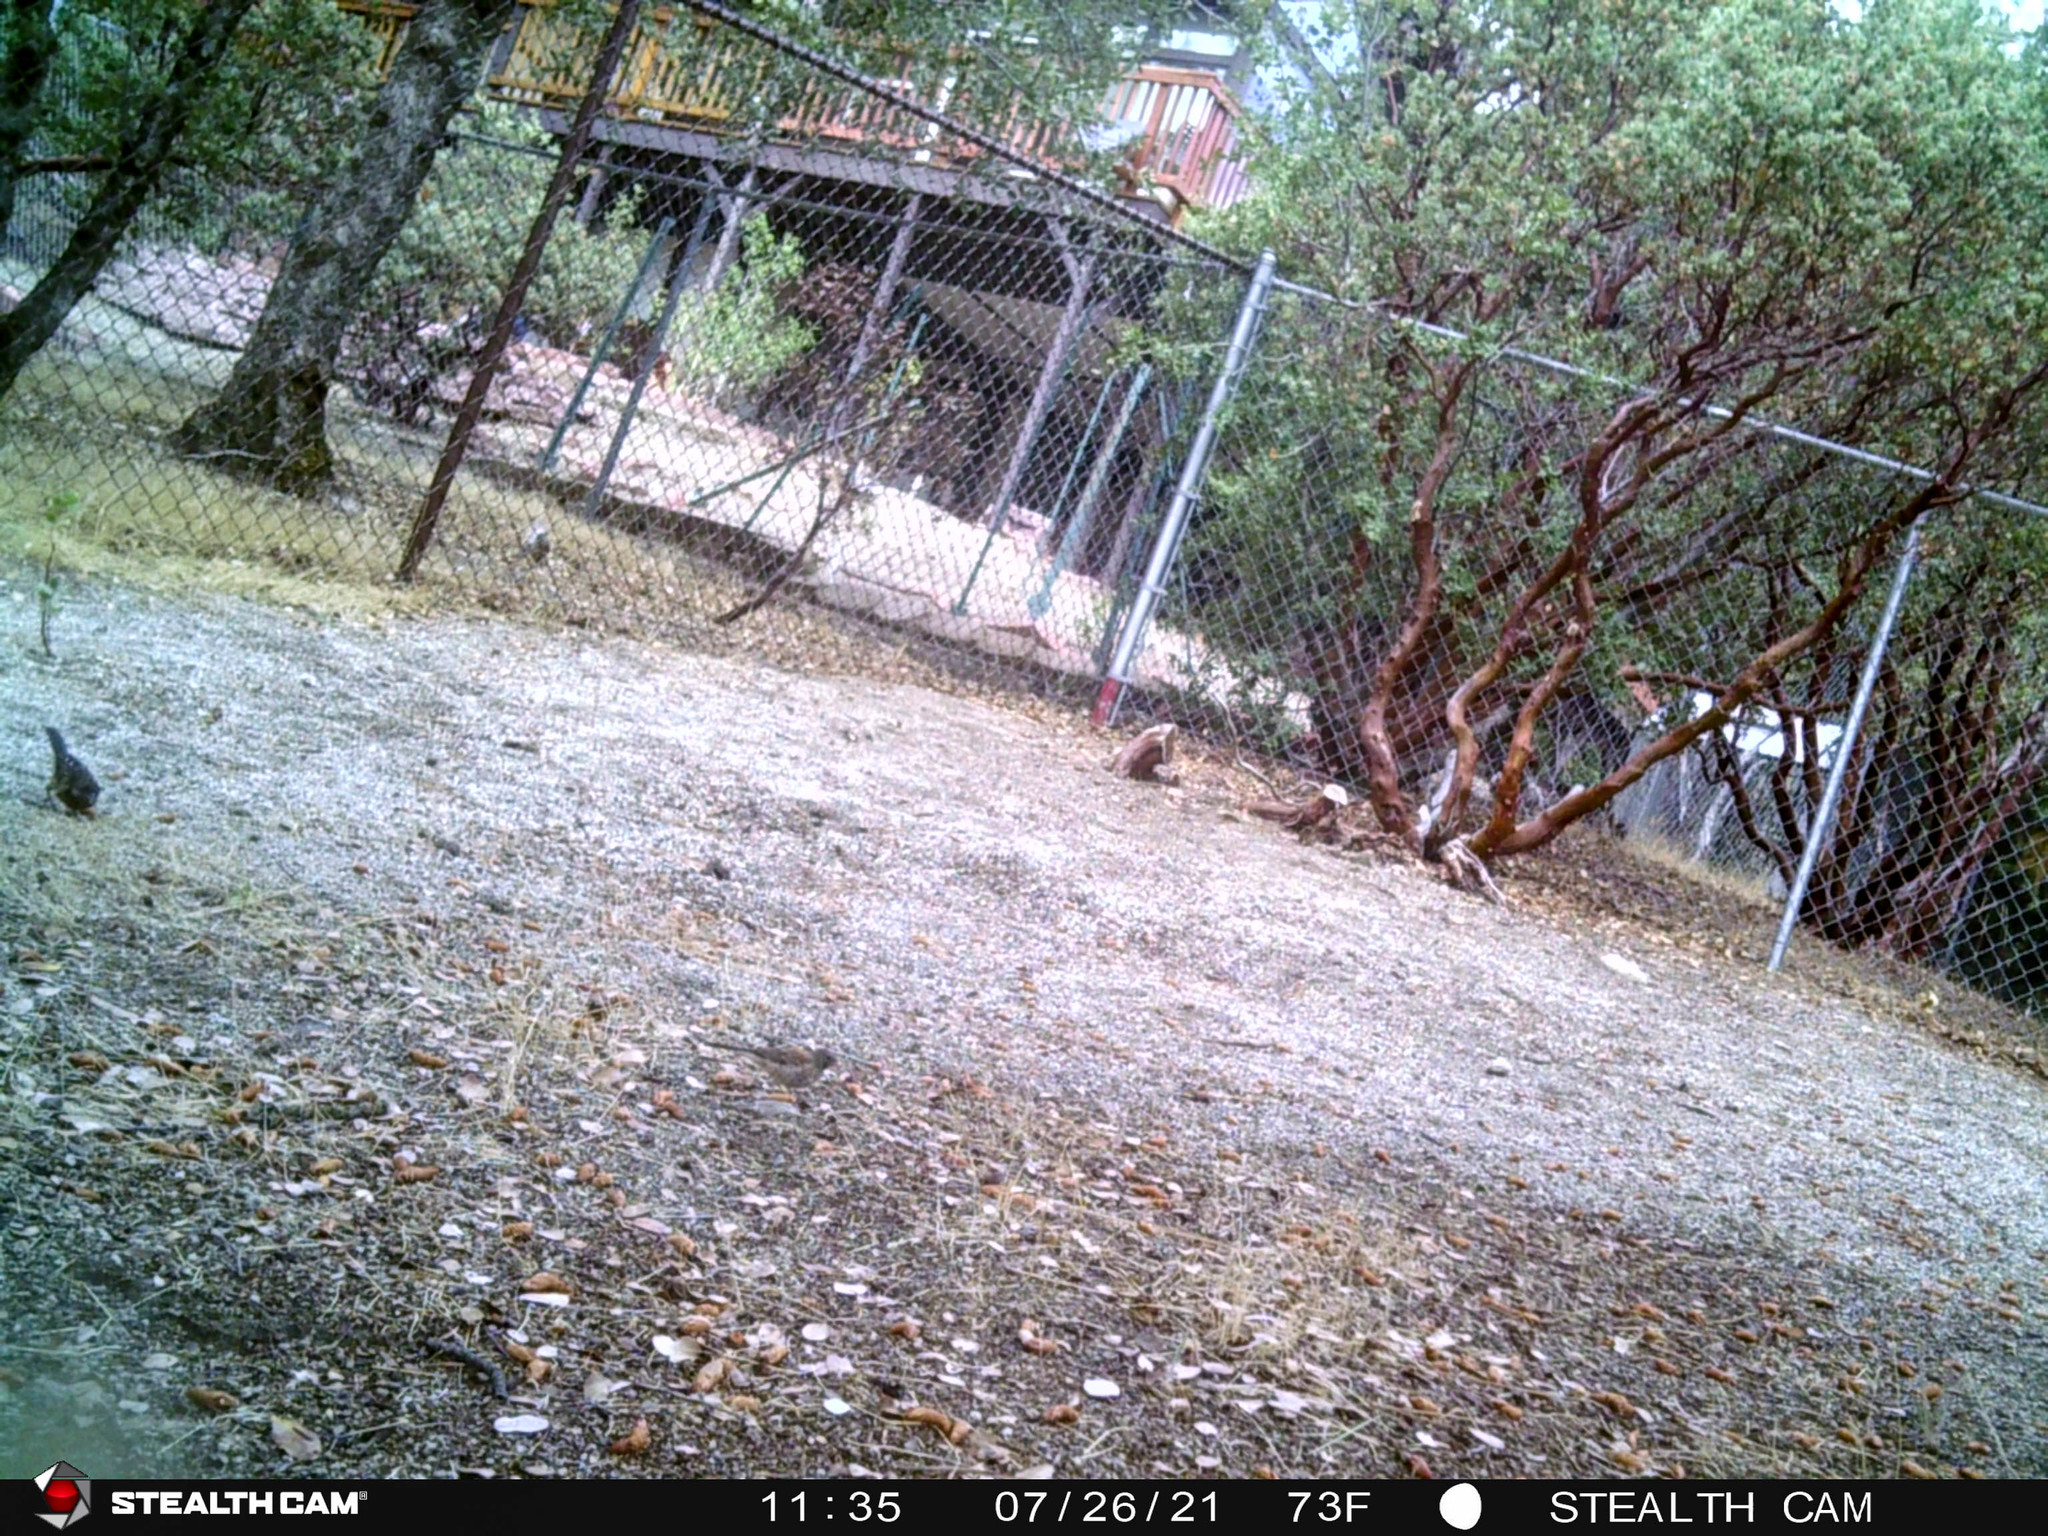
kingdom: Animalia
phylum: Chordata
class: Aves
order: Passeriformes
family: Passerellidae
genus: Pipilo
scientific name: Pipilo maculatus
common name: Spotted towhee
